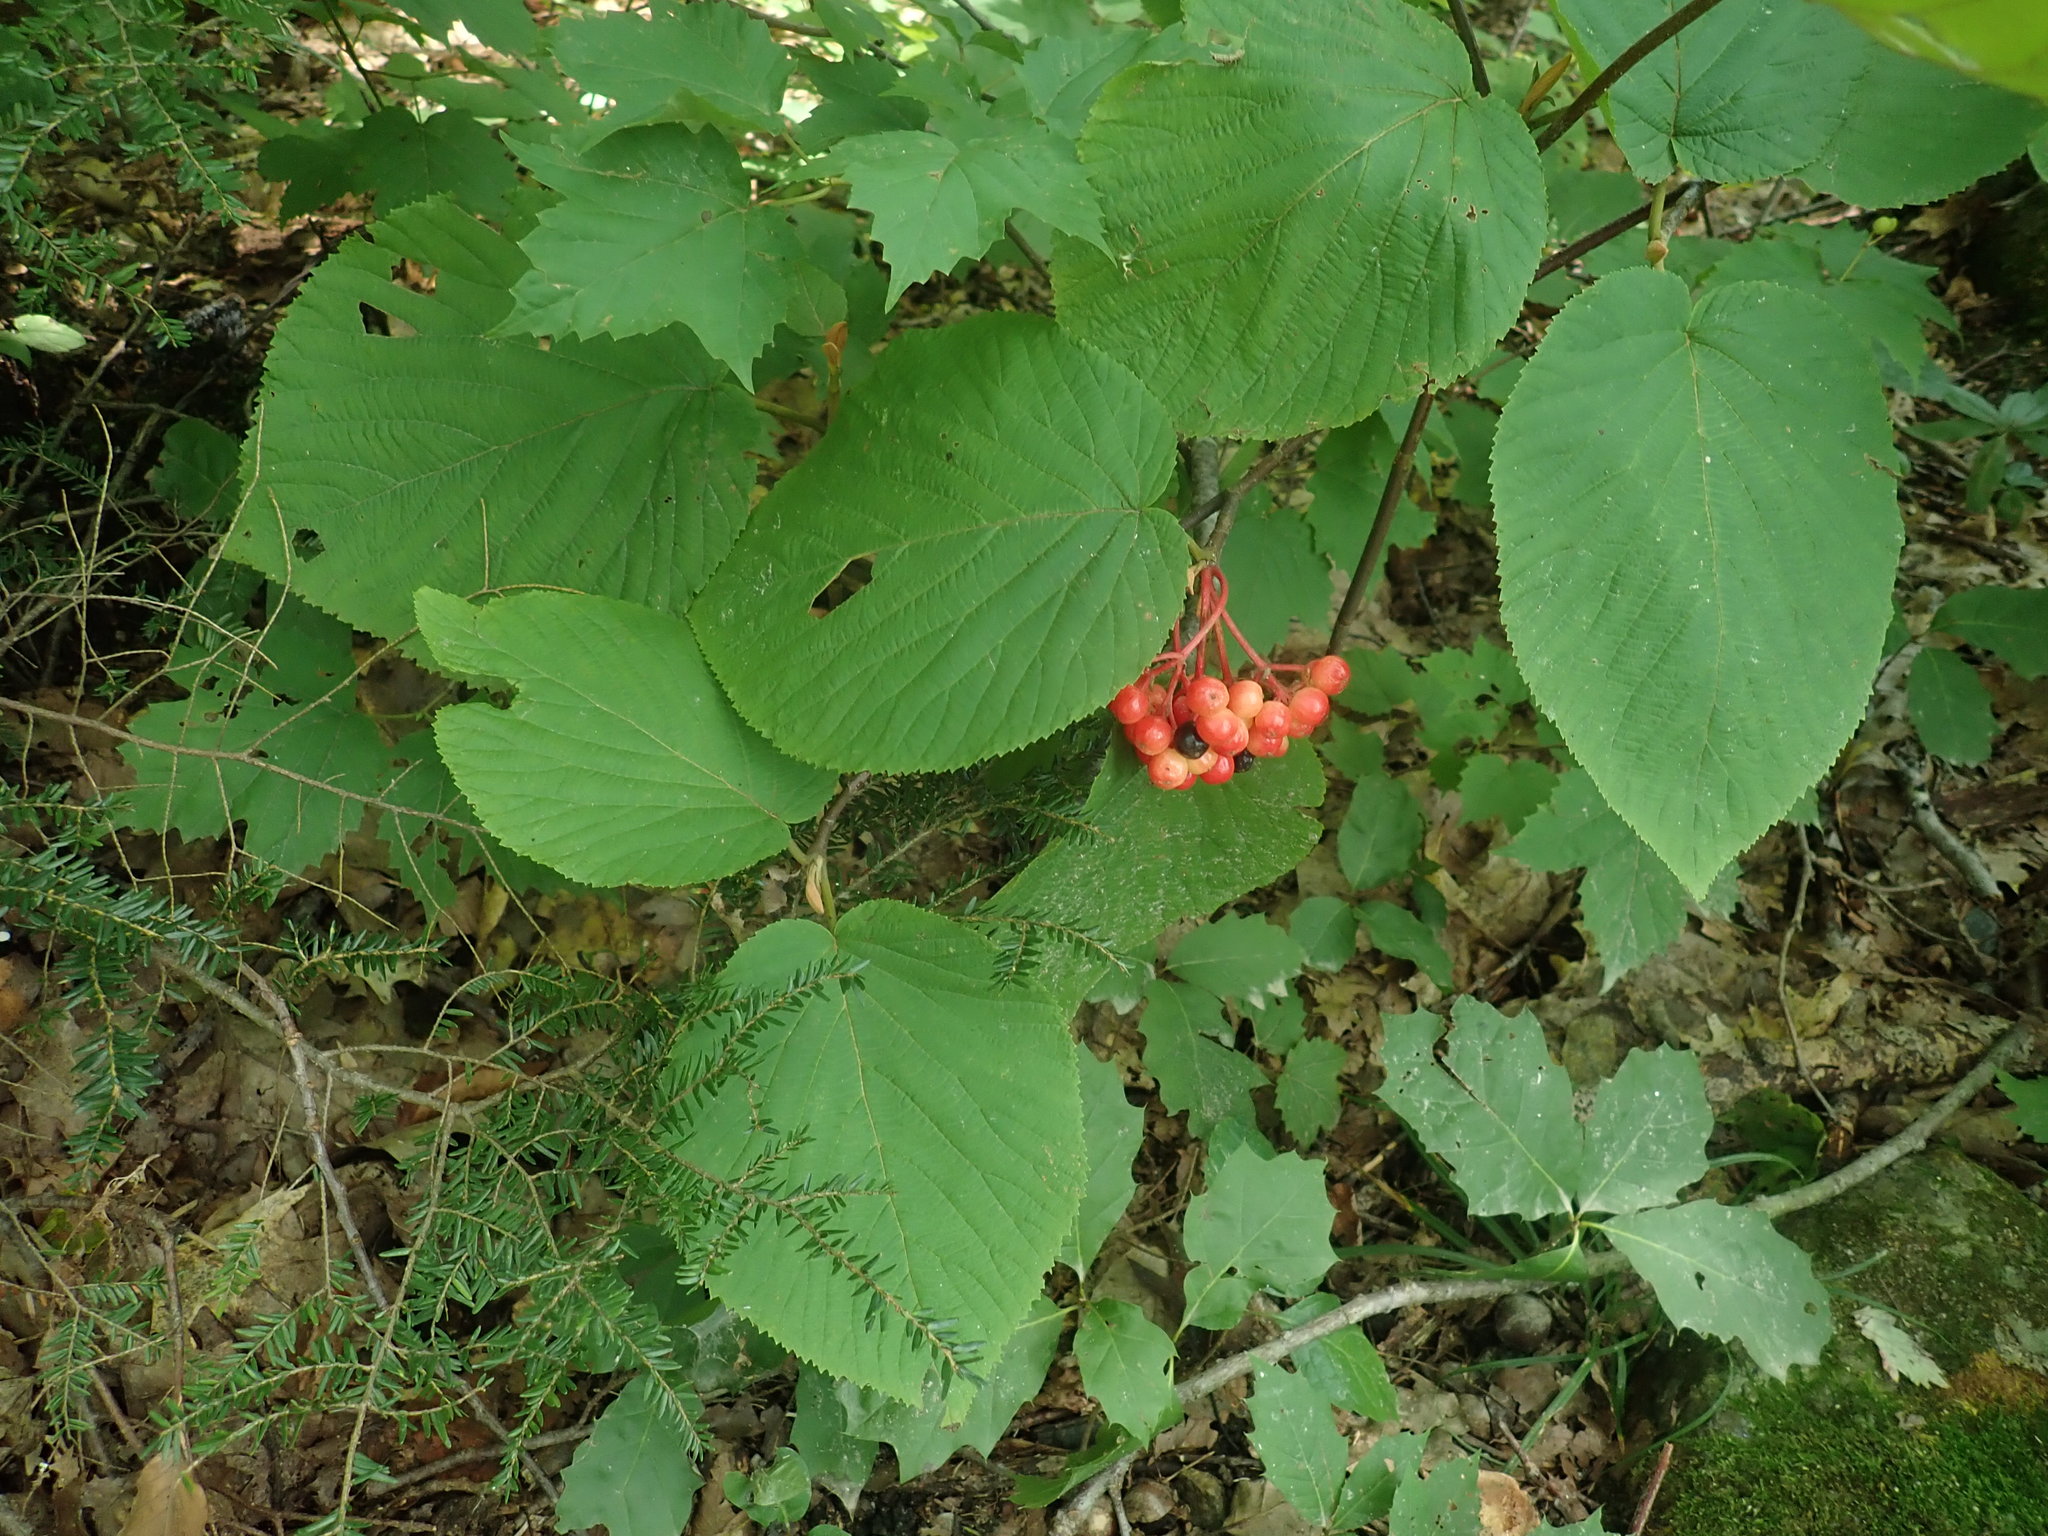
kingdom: Plantae
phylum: Tracheophyta
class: Magnoliopsida
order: Dipsacales
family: Viburnaceae
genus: Viburnum
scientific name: Viburnum lantanoides
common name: Hobblebush
